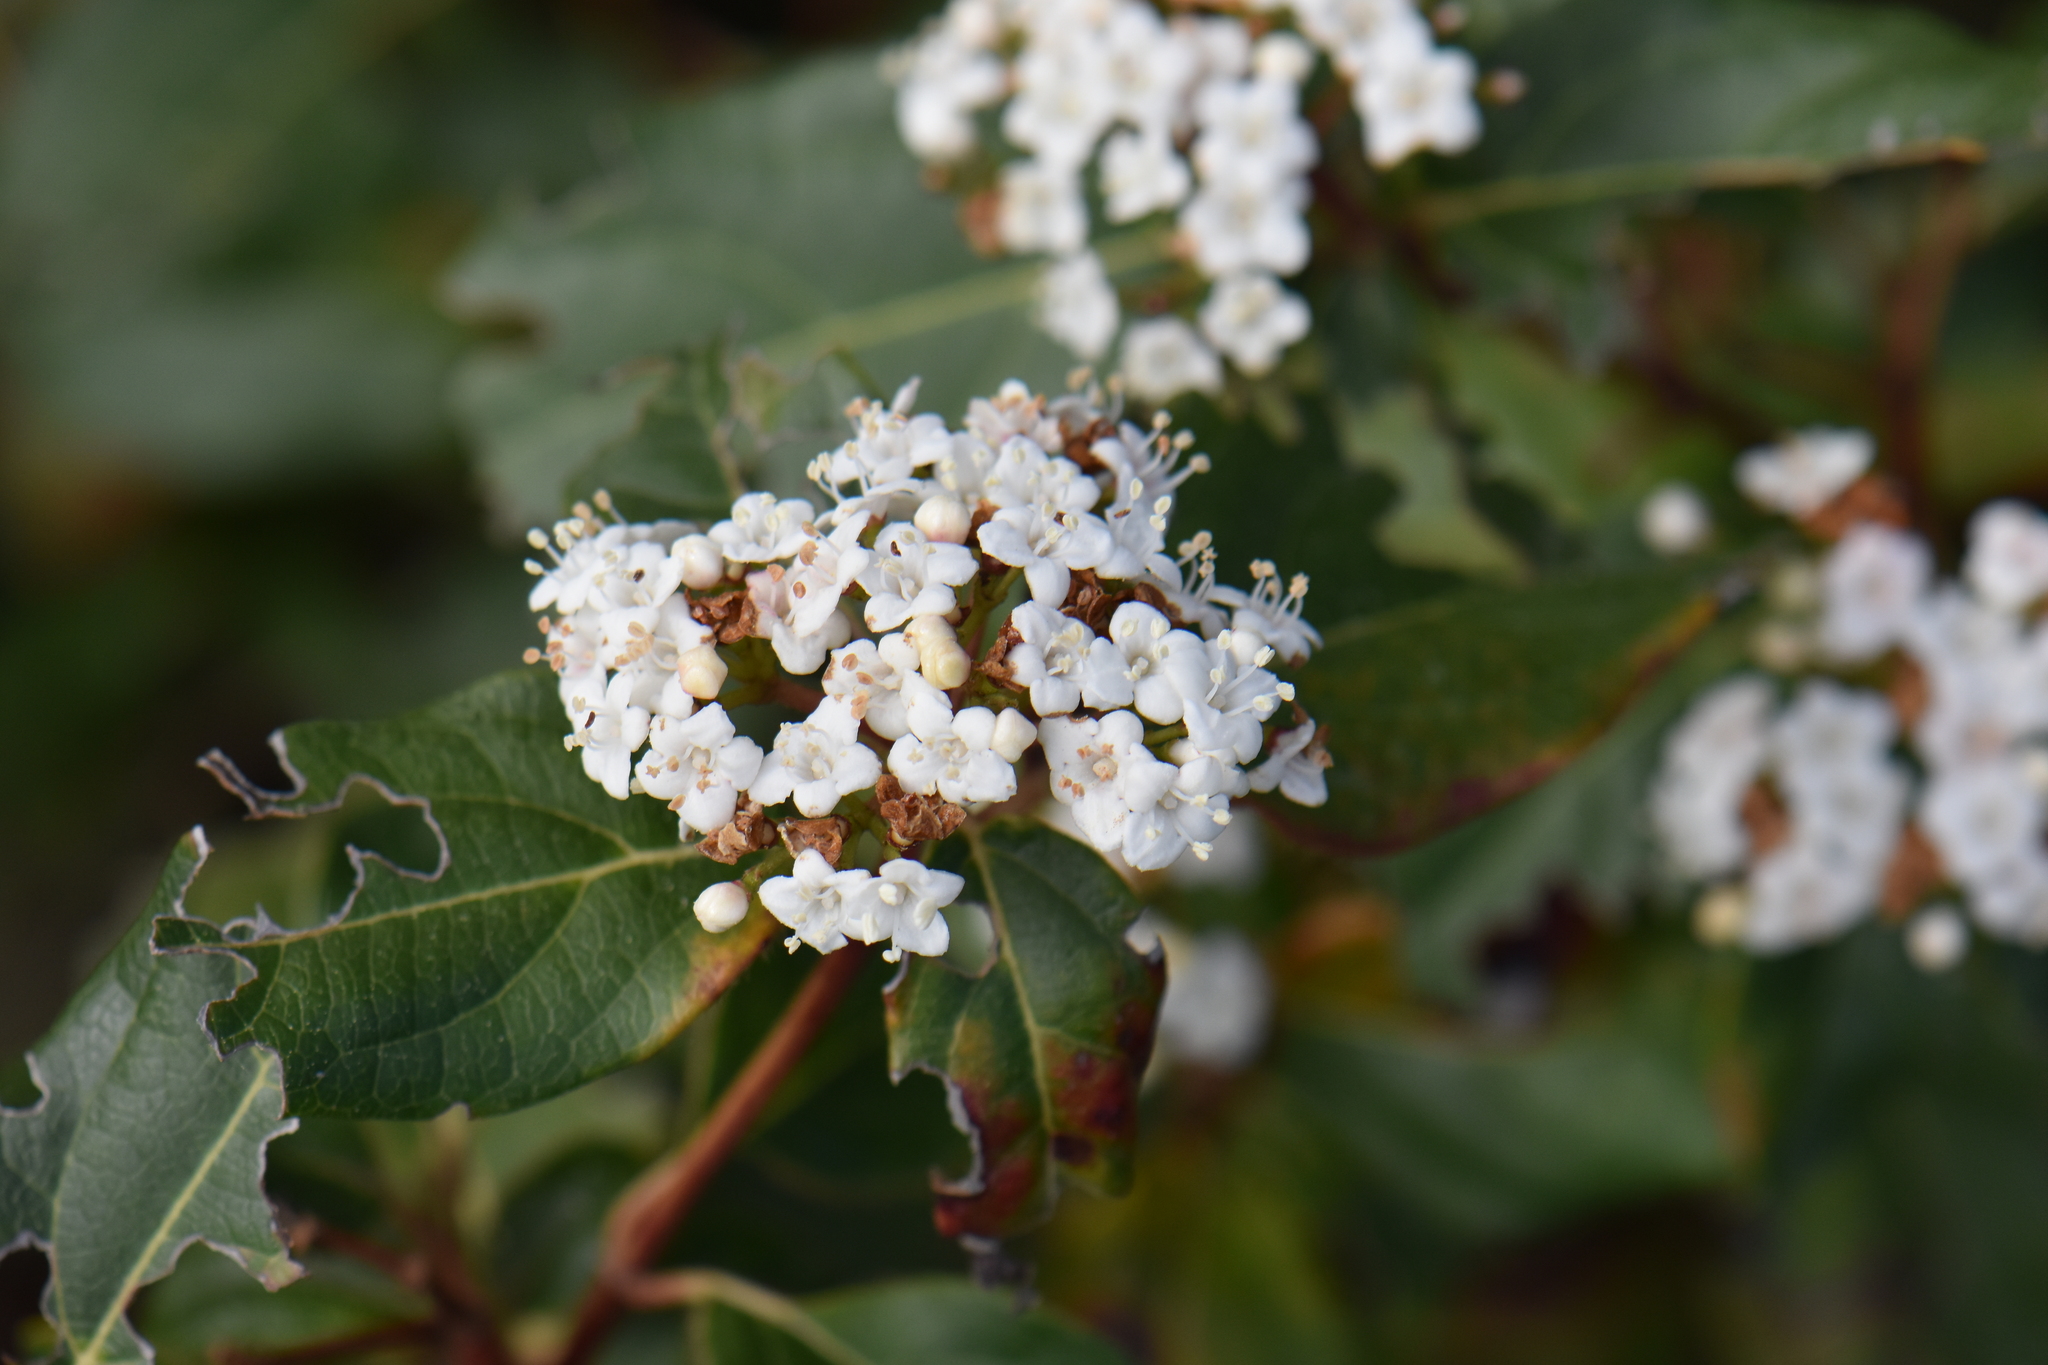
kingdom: Plantae
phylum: Tracheophyta
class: Magnoliopsida
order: Dipsacales
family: Viburnaceae
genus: Viburnum
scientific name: Viburnum tinus
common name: Laurustinus
